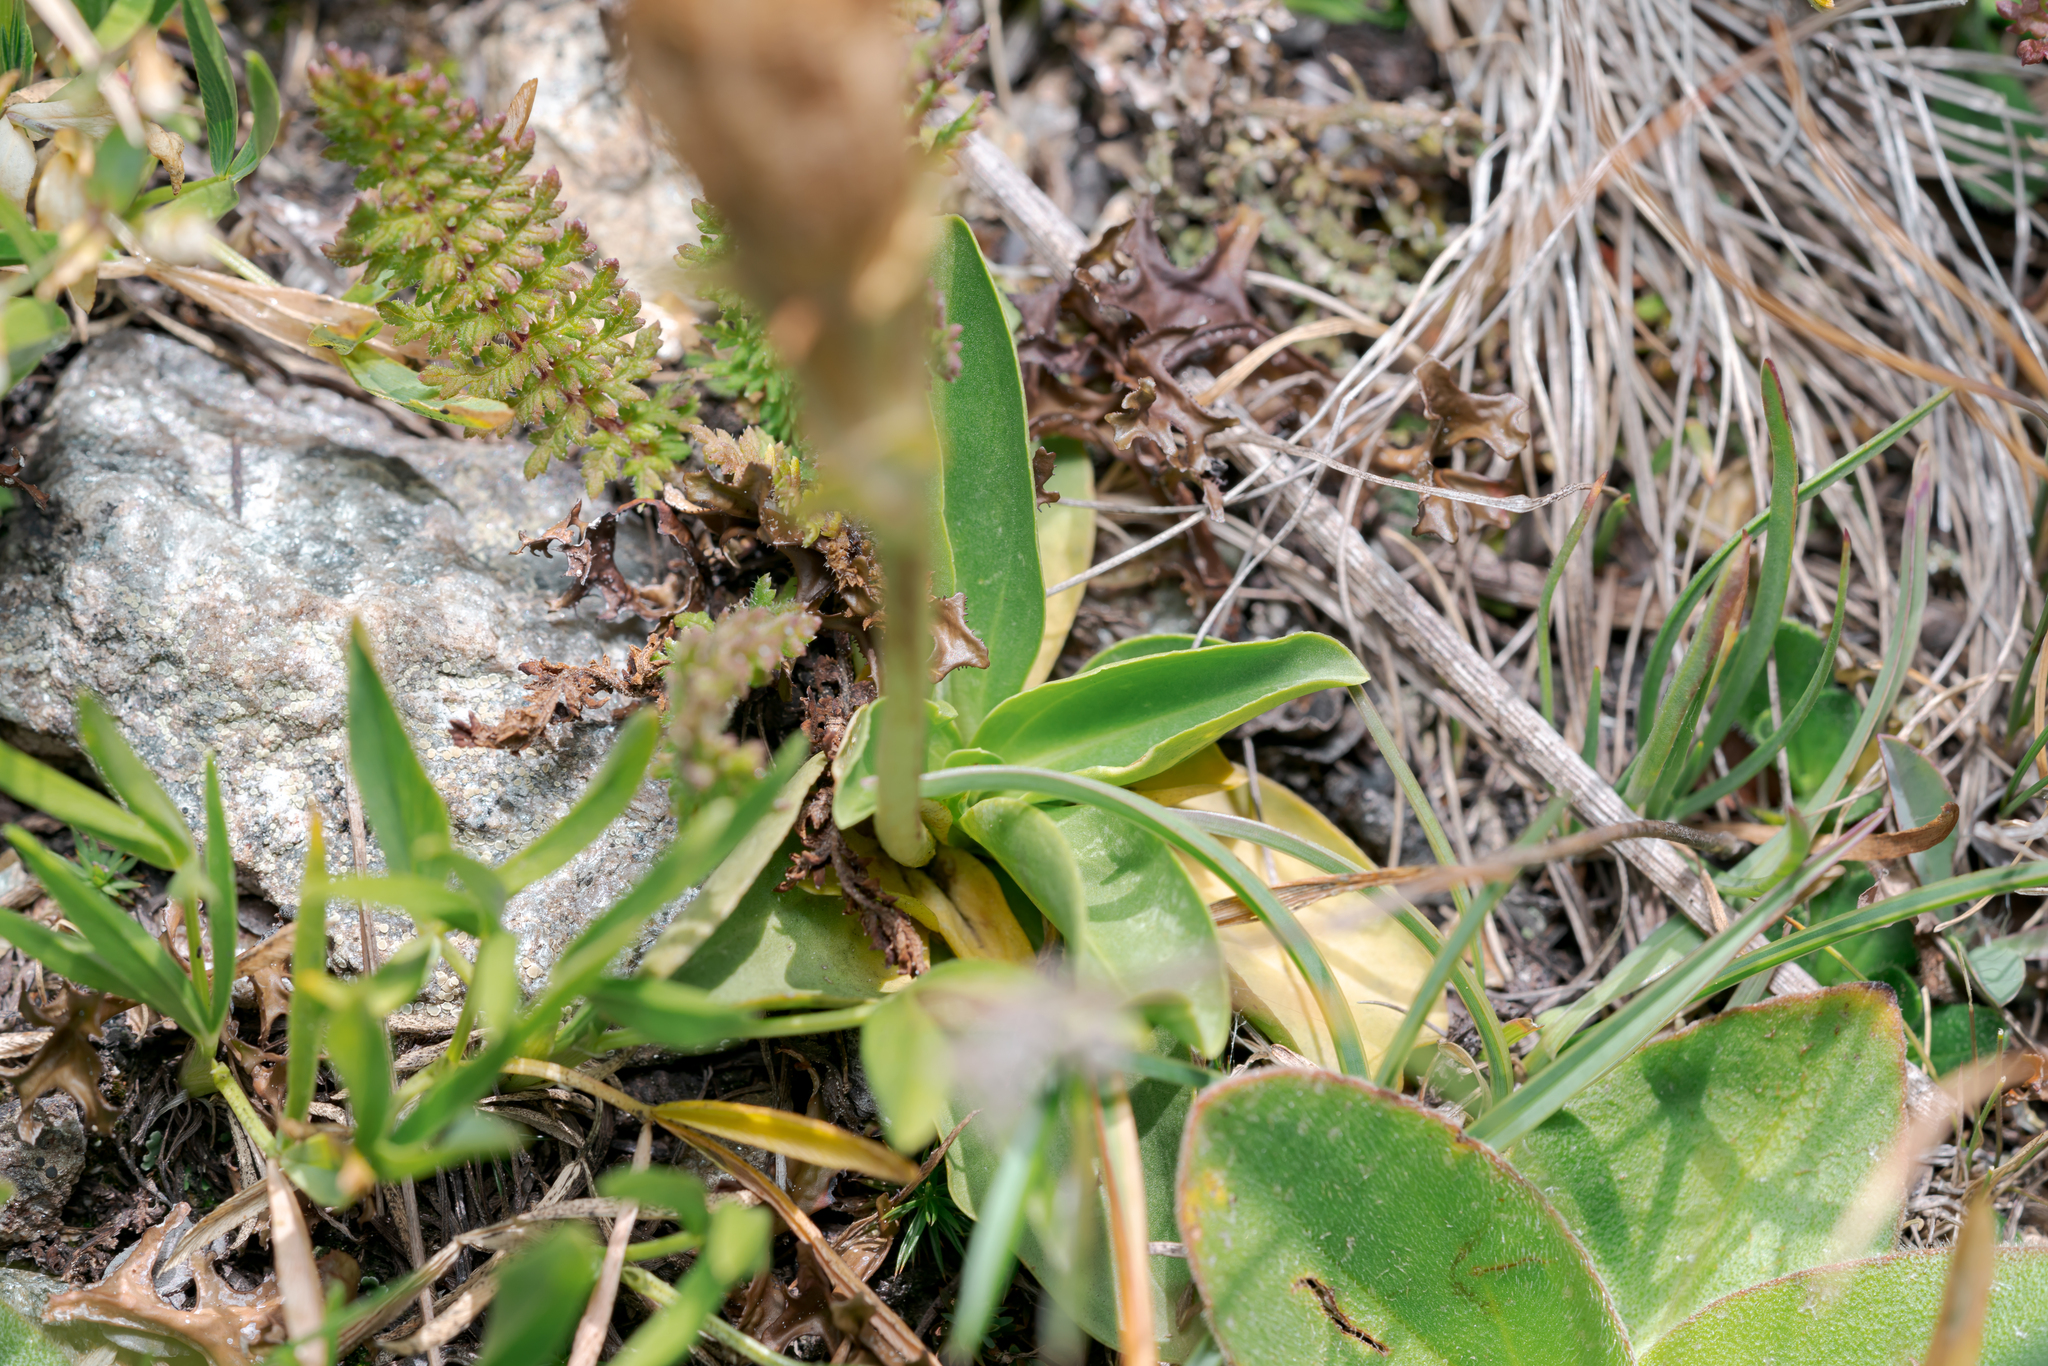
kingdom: Plantae
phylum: Tracheophyta
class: Magnoliopsida
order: Gentianales
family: Gentianaceae
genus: Gentiana
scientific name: Gentiana acaulis
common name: Trumpet gentian
